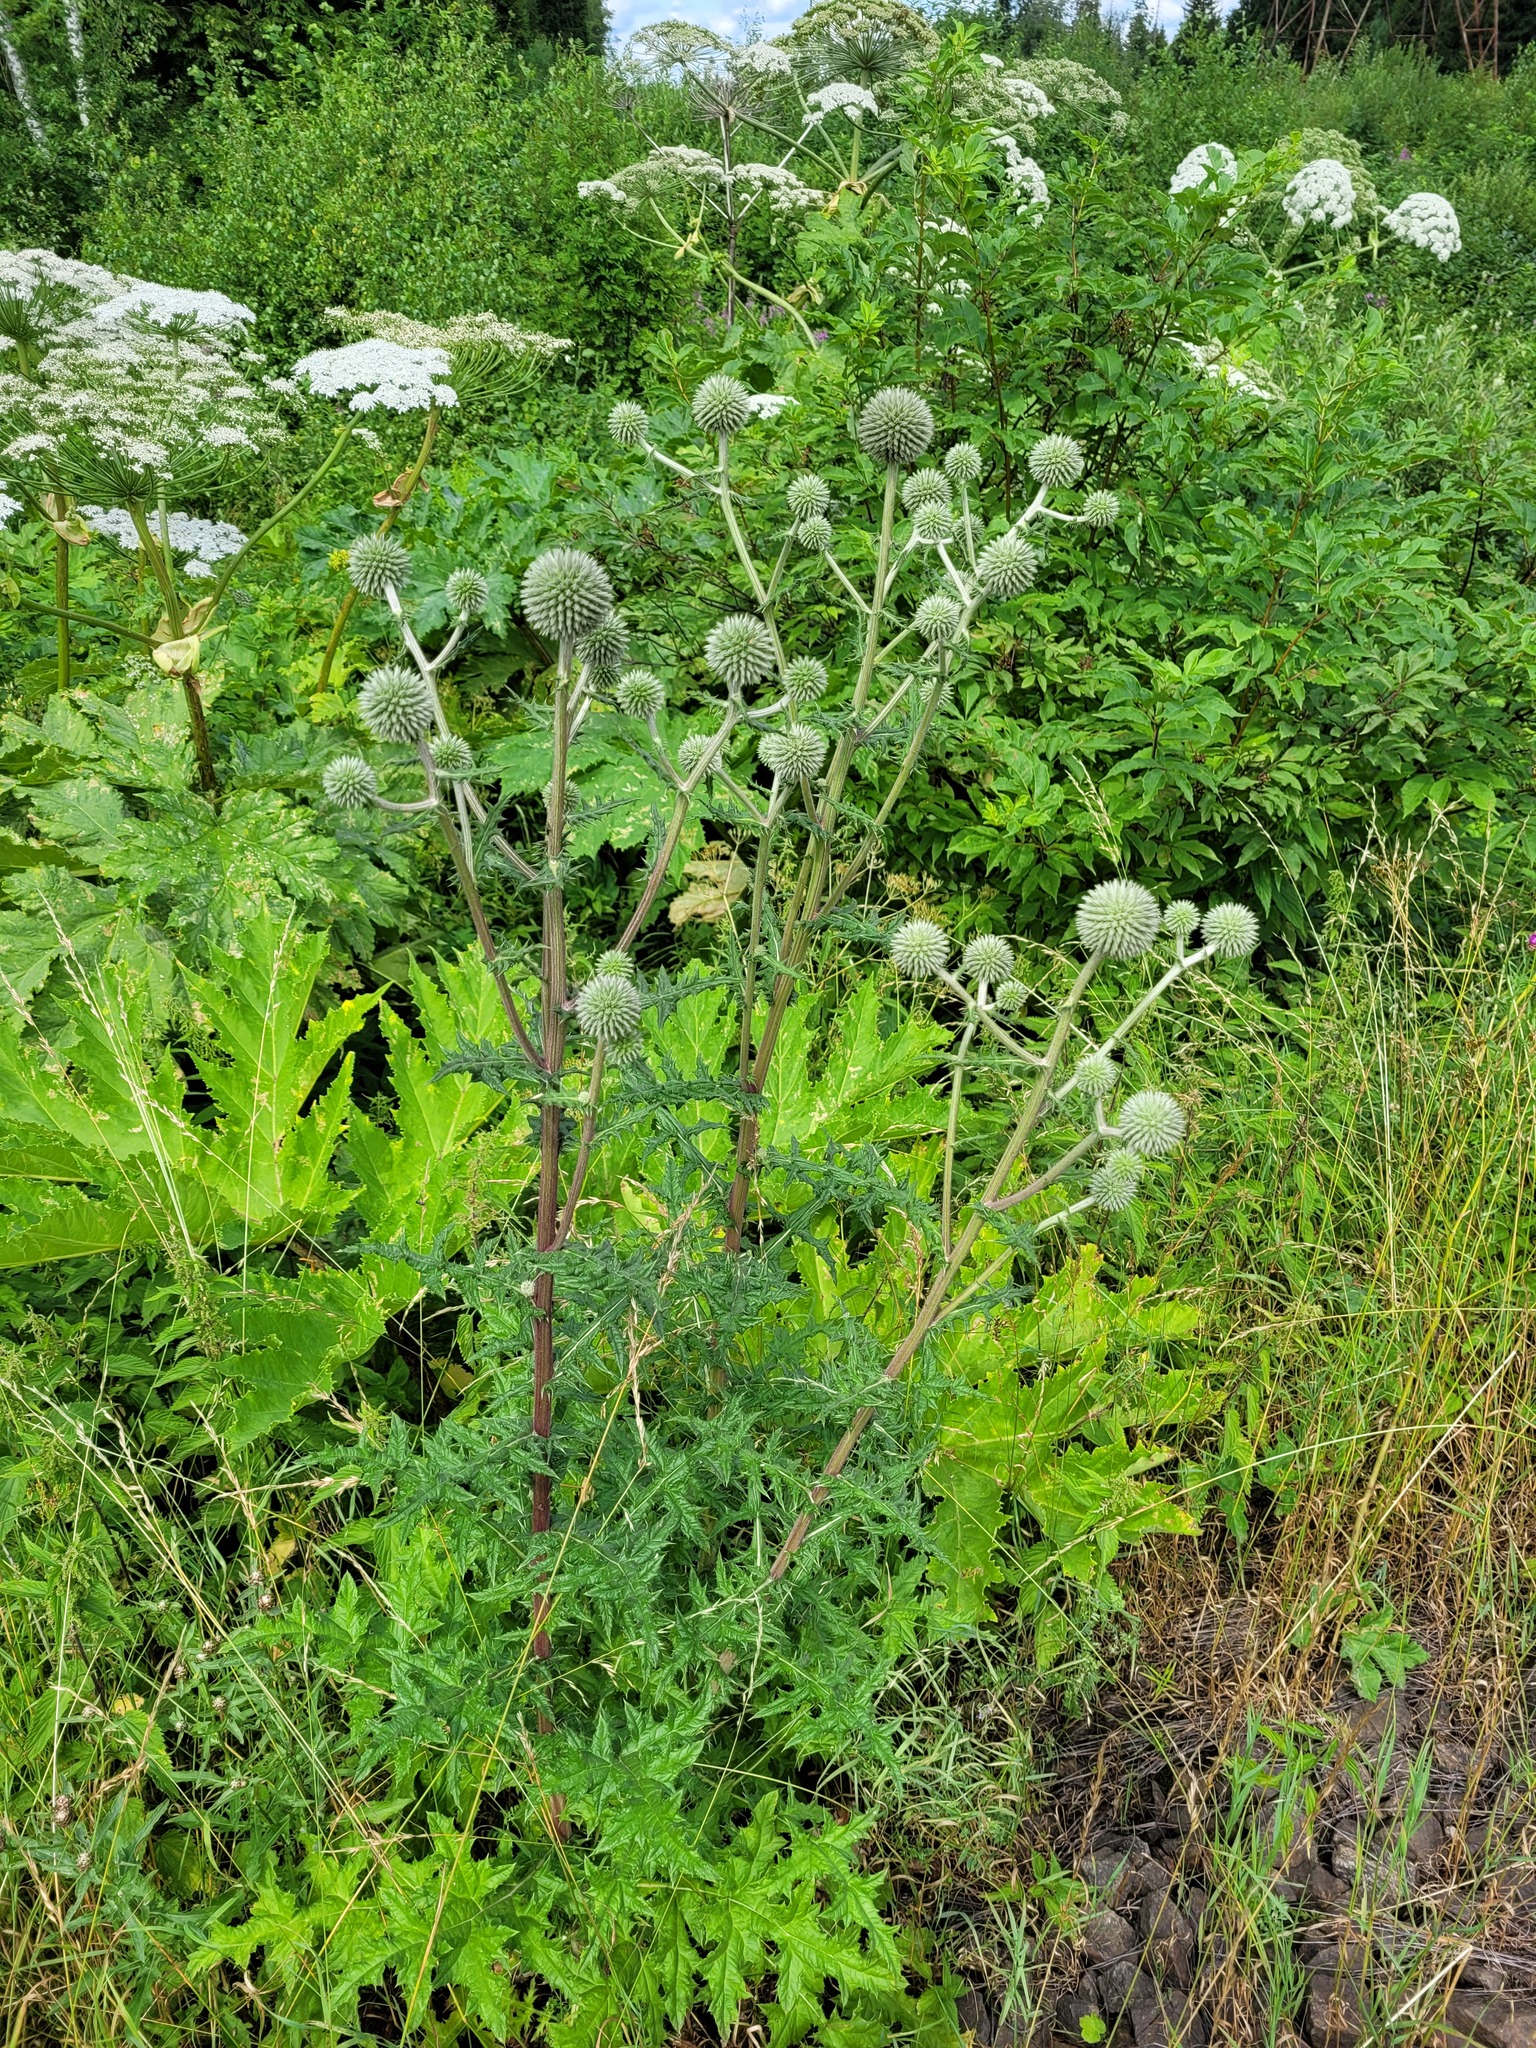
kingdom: Plantae
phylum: Tracheophyta
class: Magnoliopsida
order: Asterales
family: Asteraceae
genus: Echinops
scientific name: Echinops sphaerocephalus
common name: Glandular globe-thistle
